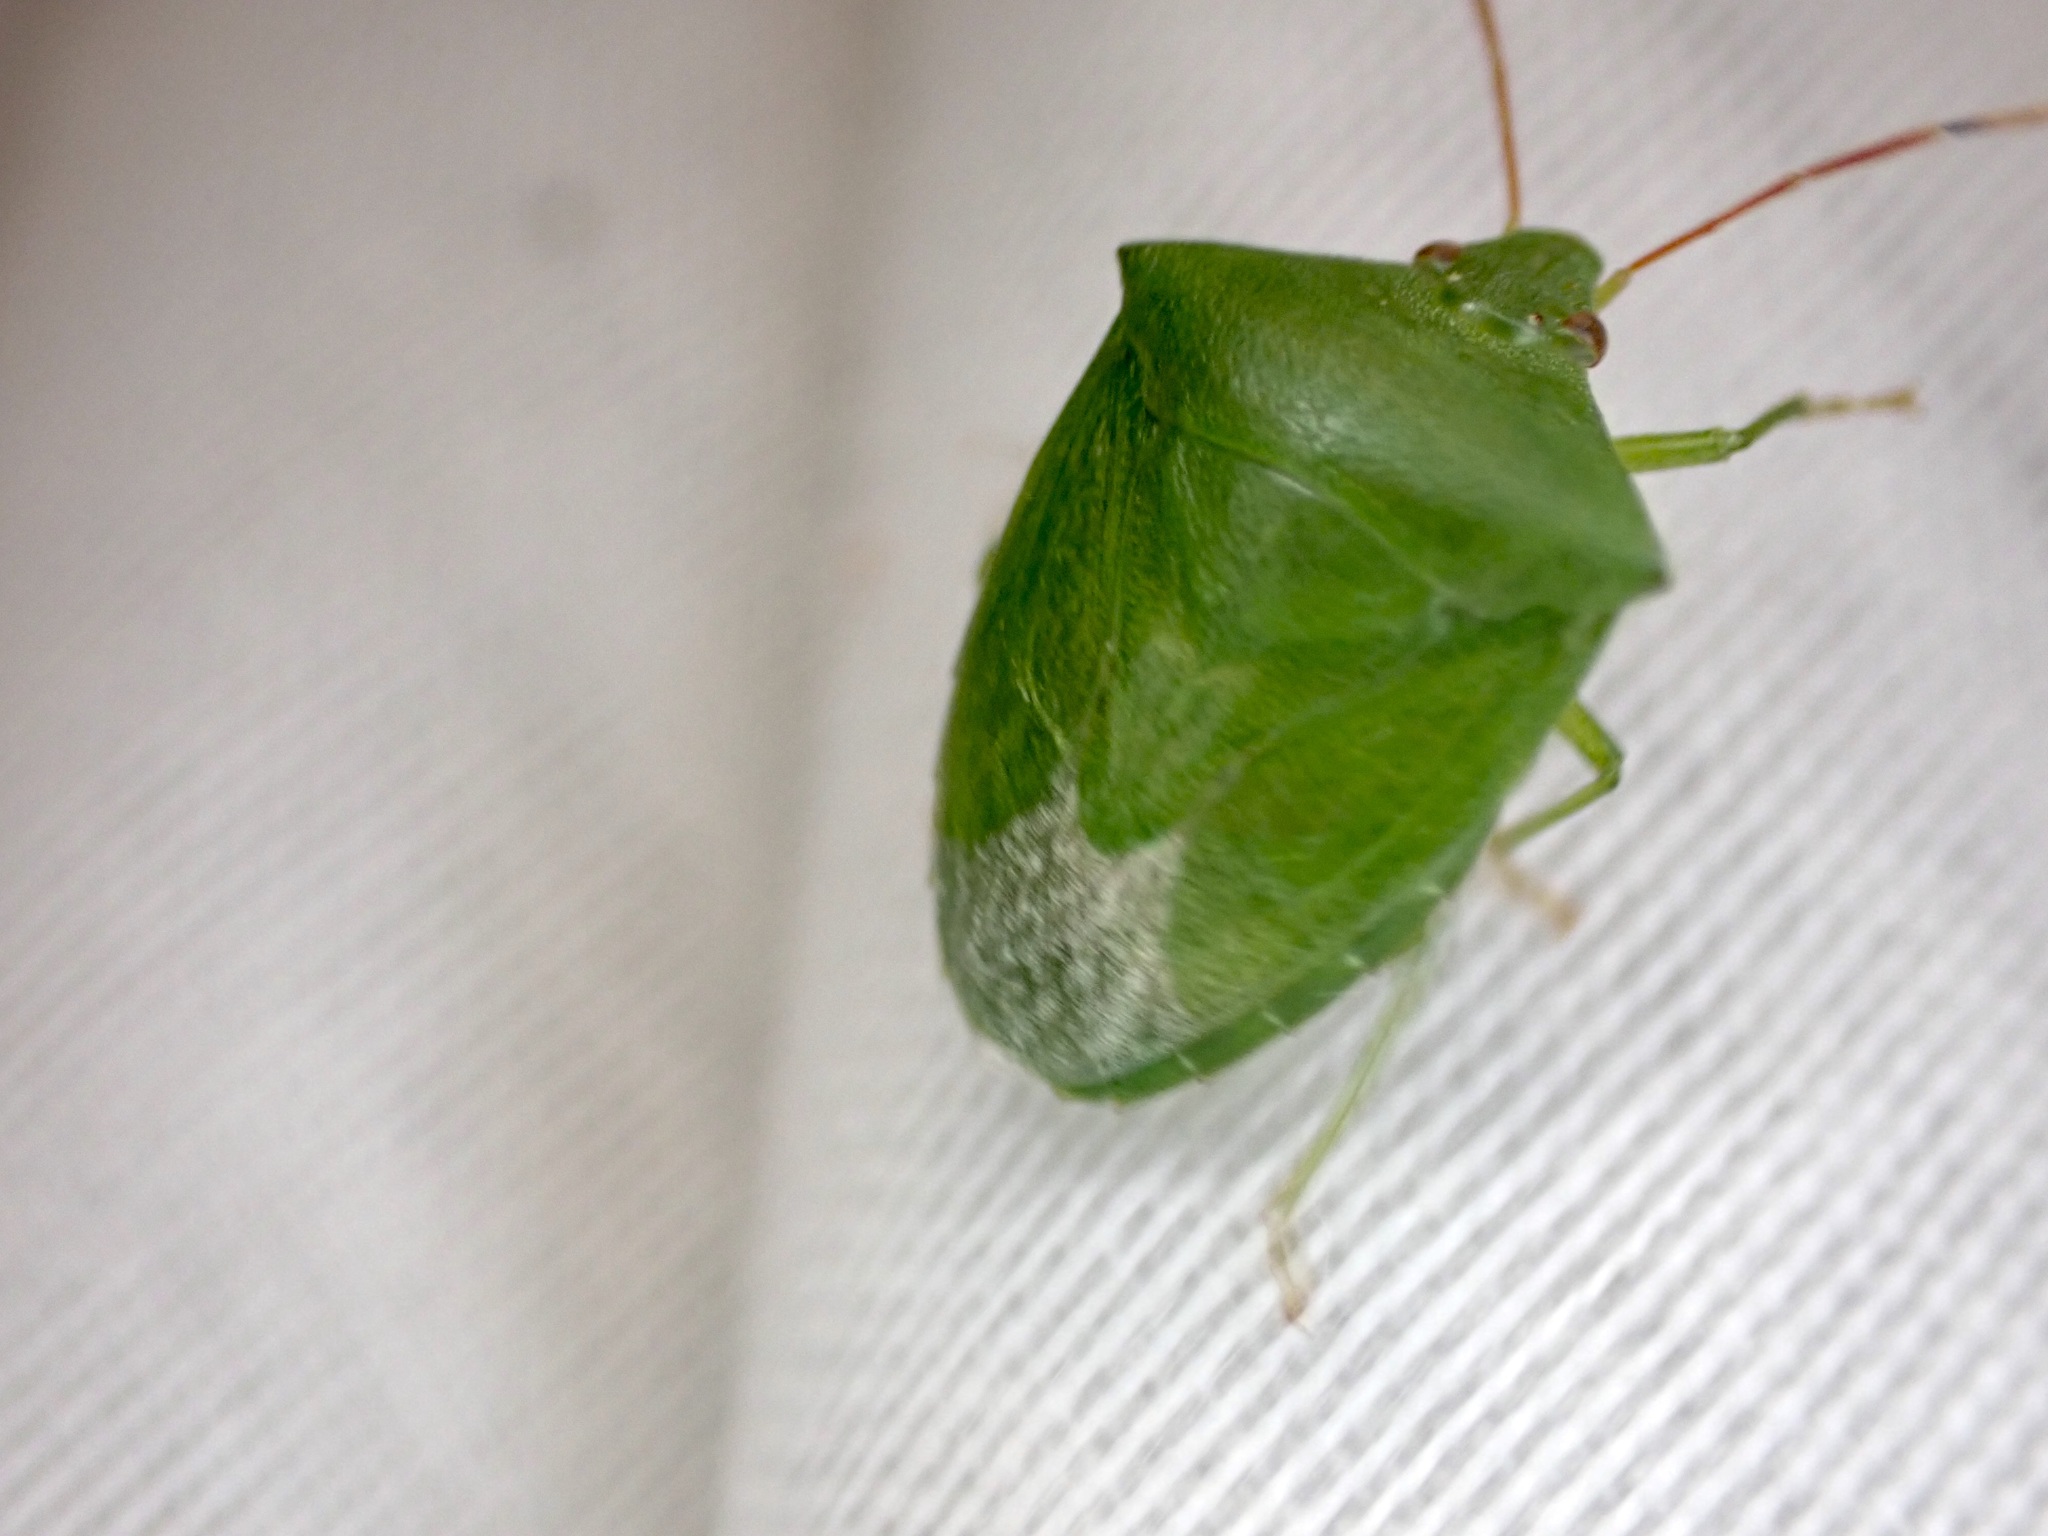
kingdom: Animalia
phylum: Arthropoda
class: Insecta
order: Hemiptera
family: Pentatomidae
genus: Cuspicona
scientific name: Cuspicona simplex
